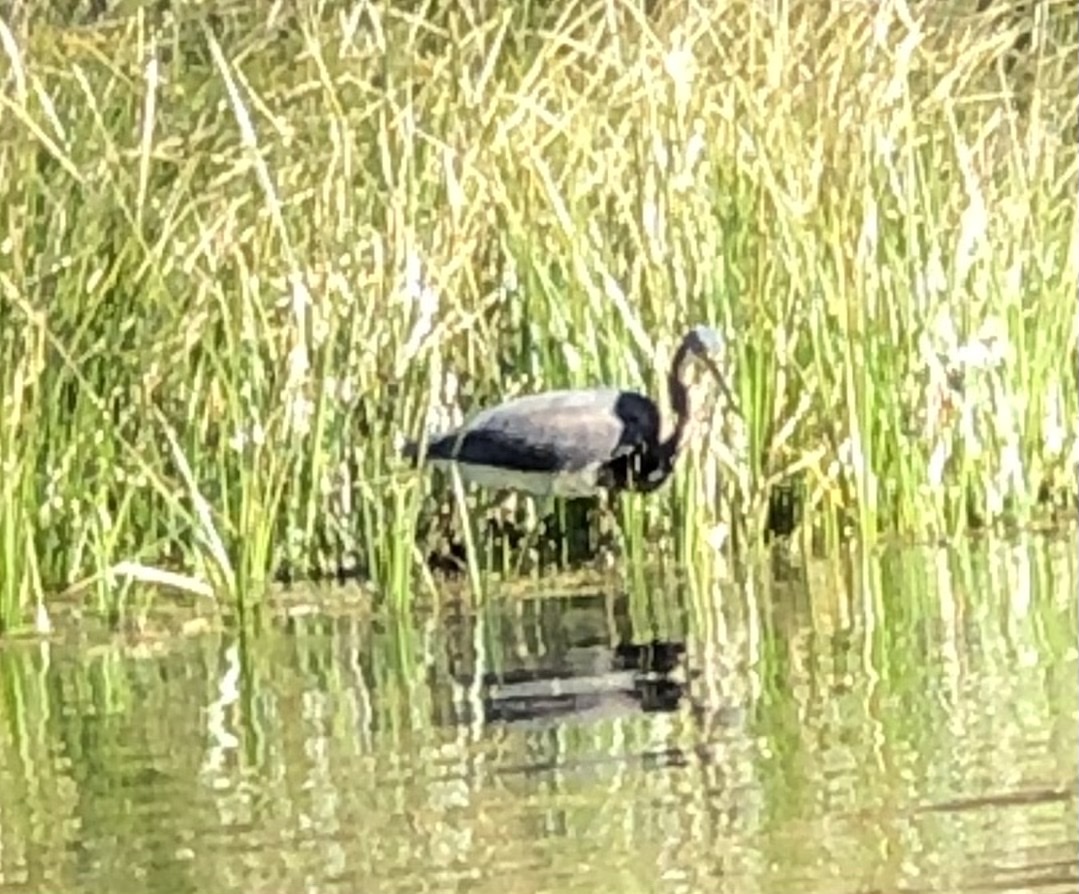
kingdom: Animalia
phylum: Chordata
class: Aves
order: Pelecaniformes
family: Ardeidae
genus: Egretta
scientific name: Egretta tricolor
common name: Tricolored heron
